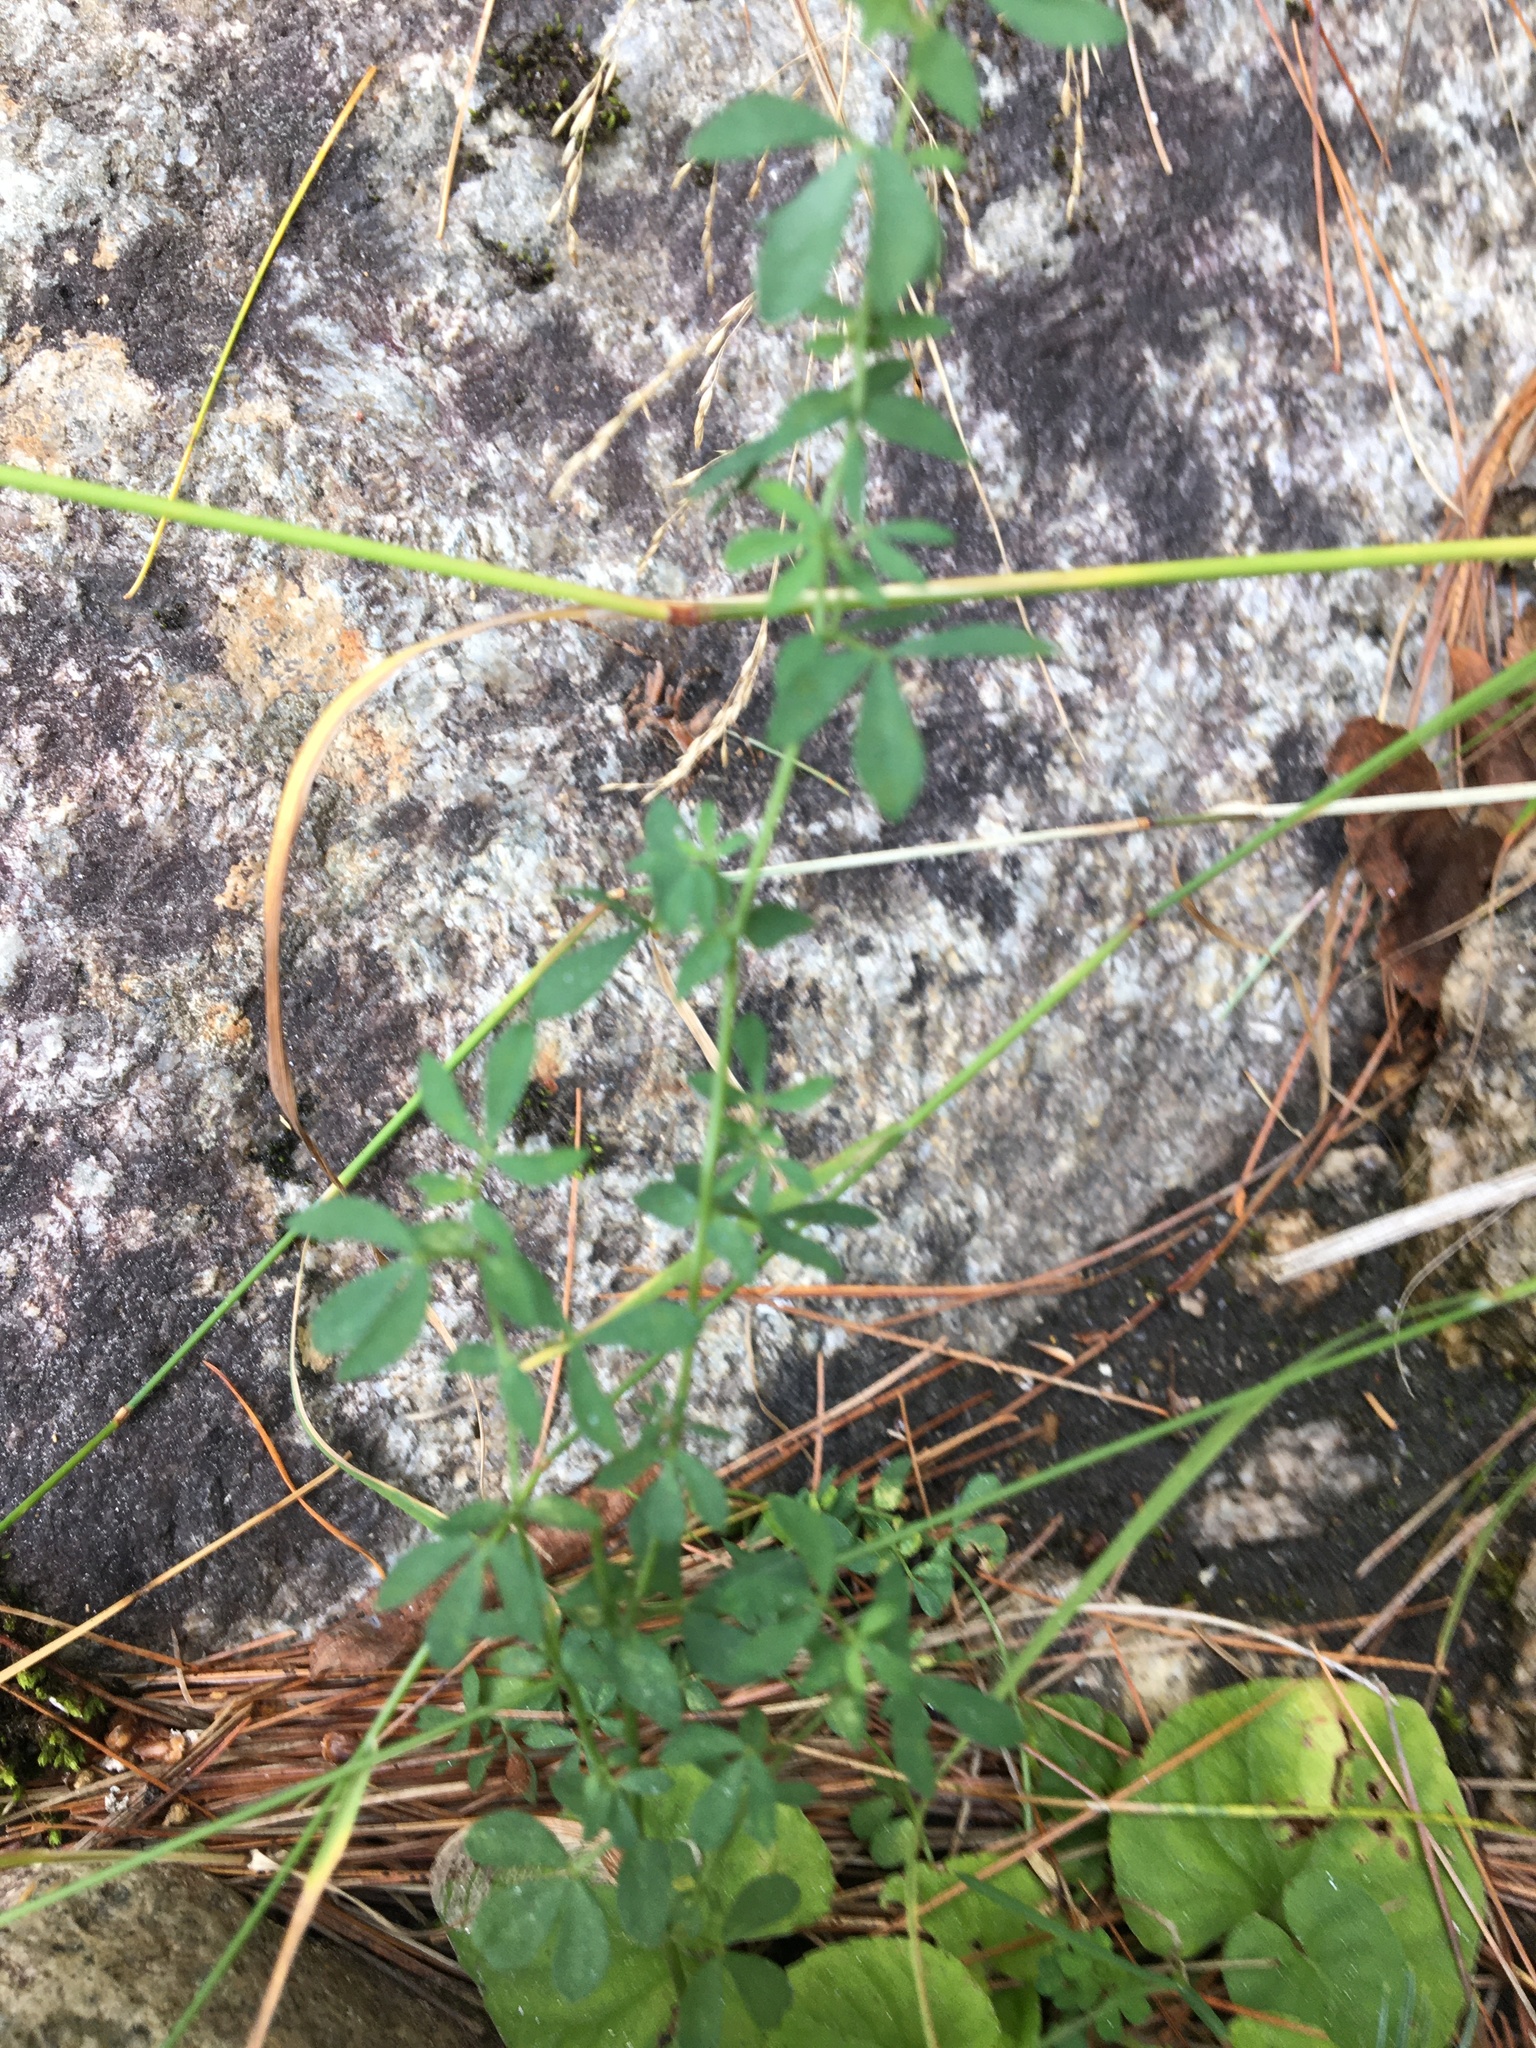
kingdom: Plantae
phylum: Tracheophyta
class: Magnoliopsida
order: Fabales
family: Fabaceae
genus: Lotus
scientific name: Lotus corniculatus
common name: Common bird's-foot-trefoil
